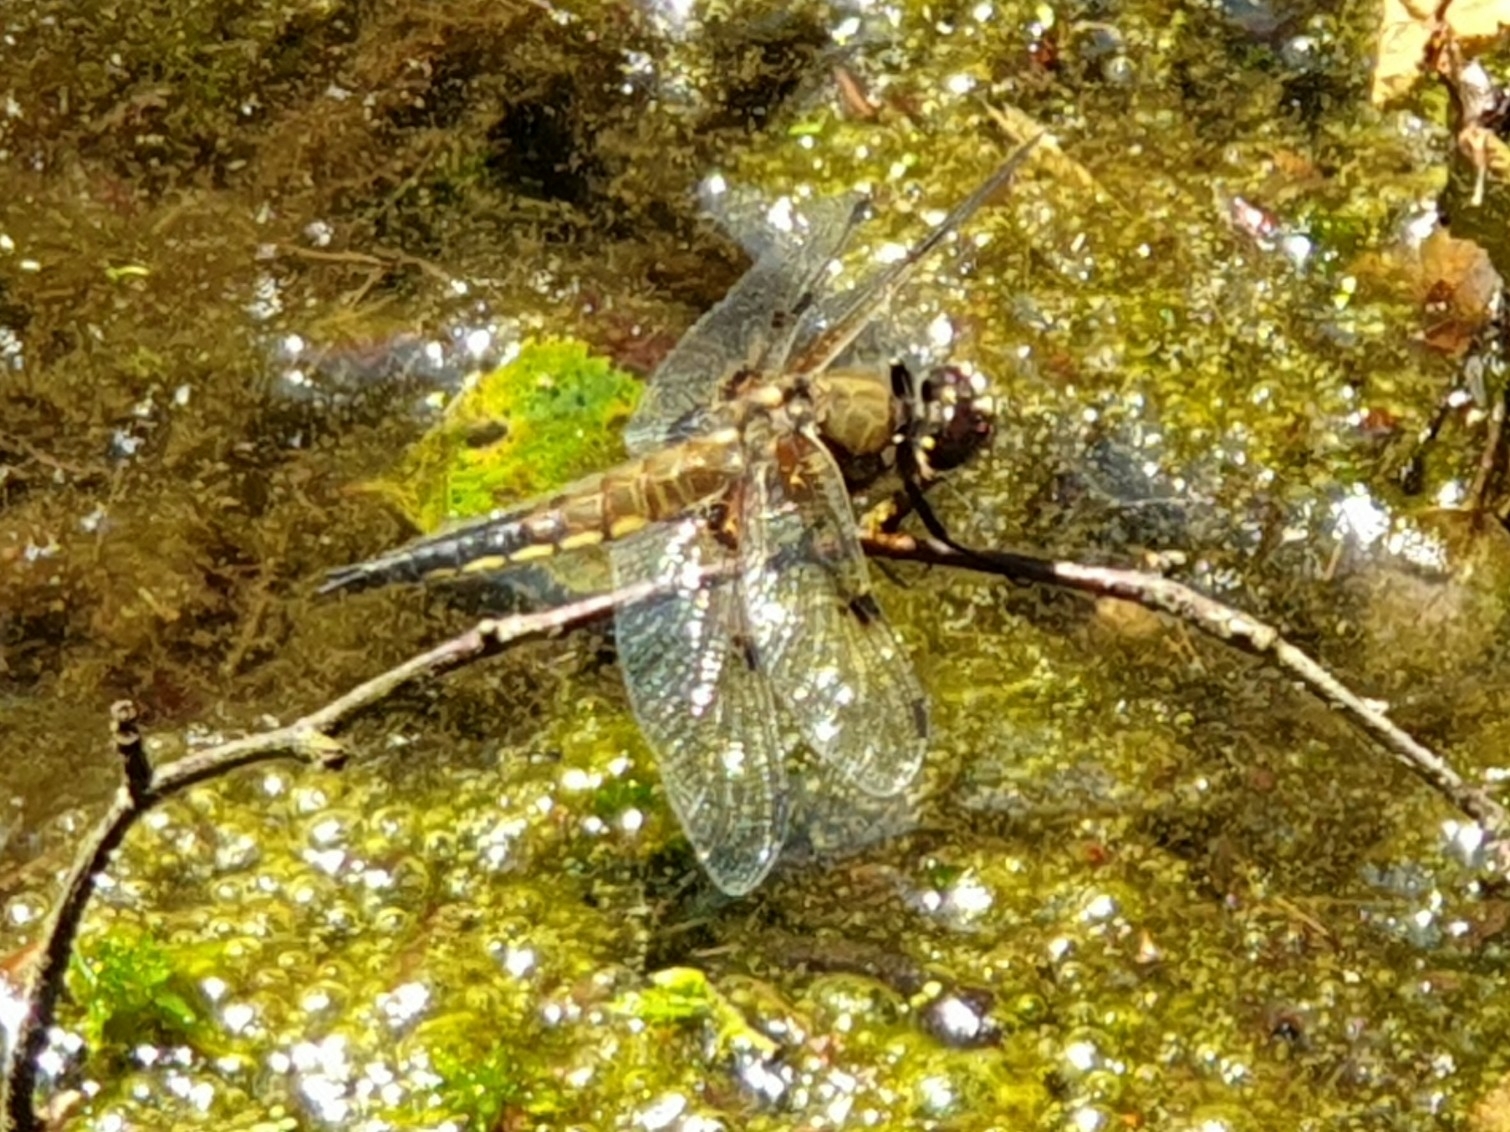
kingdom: Animalia
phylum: Arthropoda
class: Insecta
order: Odonata
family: Libellulidae
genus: Libellula
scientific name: Libellula quadrimaculata
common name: Four-spotted chaser
